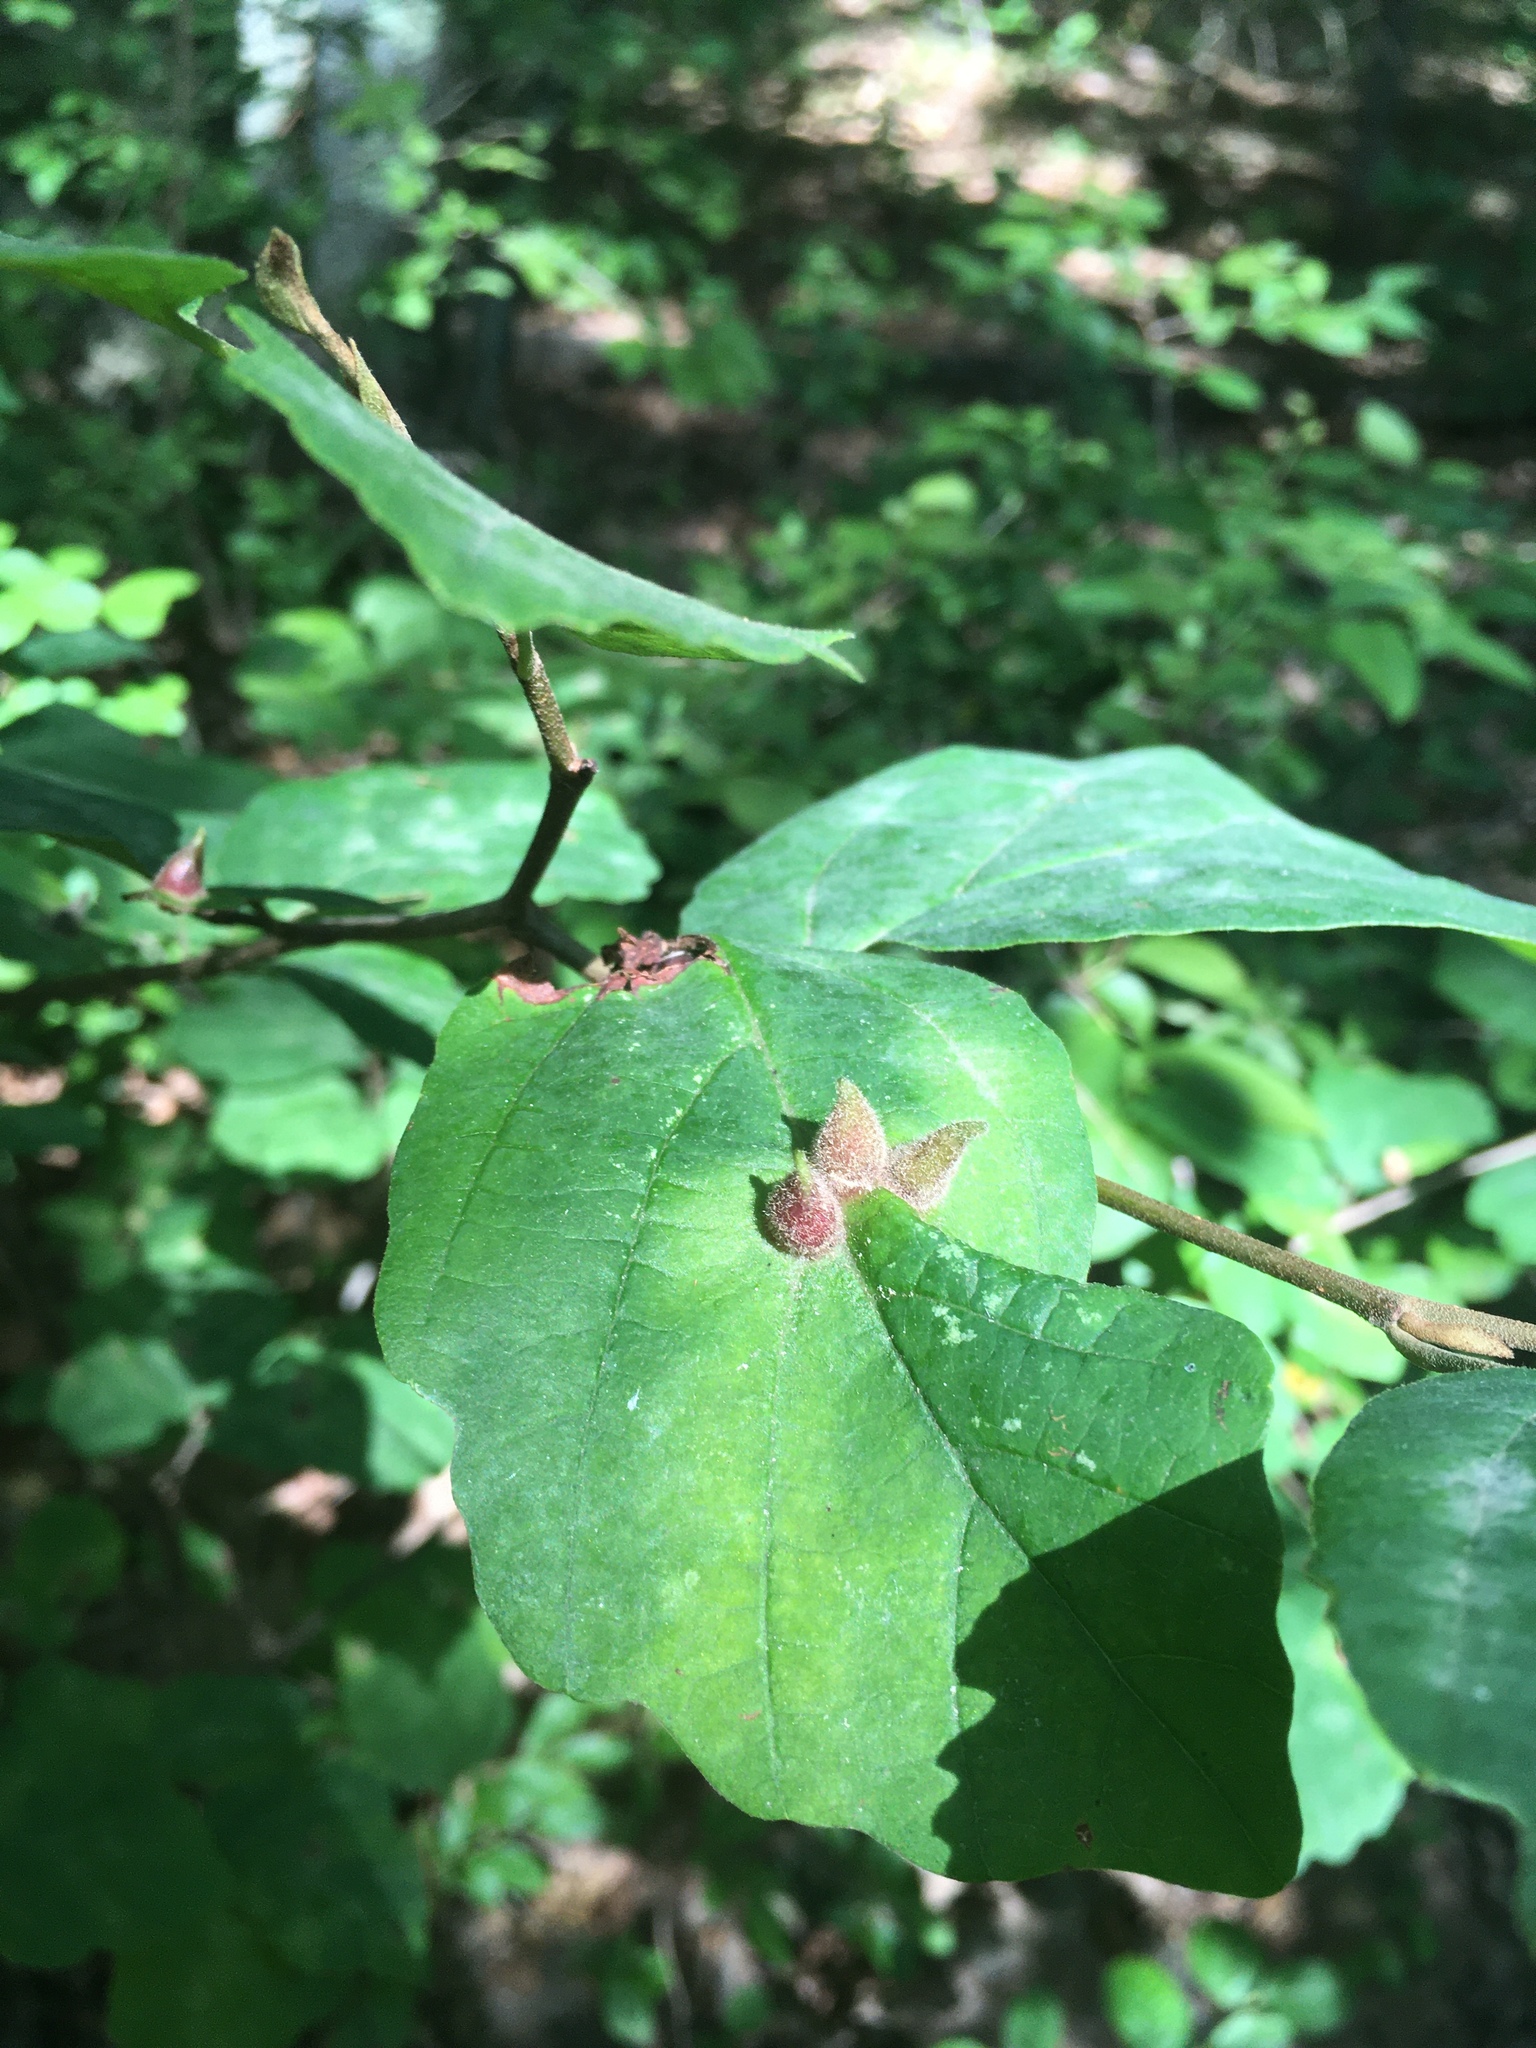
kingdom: Animalia
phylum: Arthropoda
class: Insecta
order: Hemiptera
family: Aphididae
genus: Hormaphis
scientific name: Hormaphis hamamelidis
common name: Witch-hazel cone gall aphid
